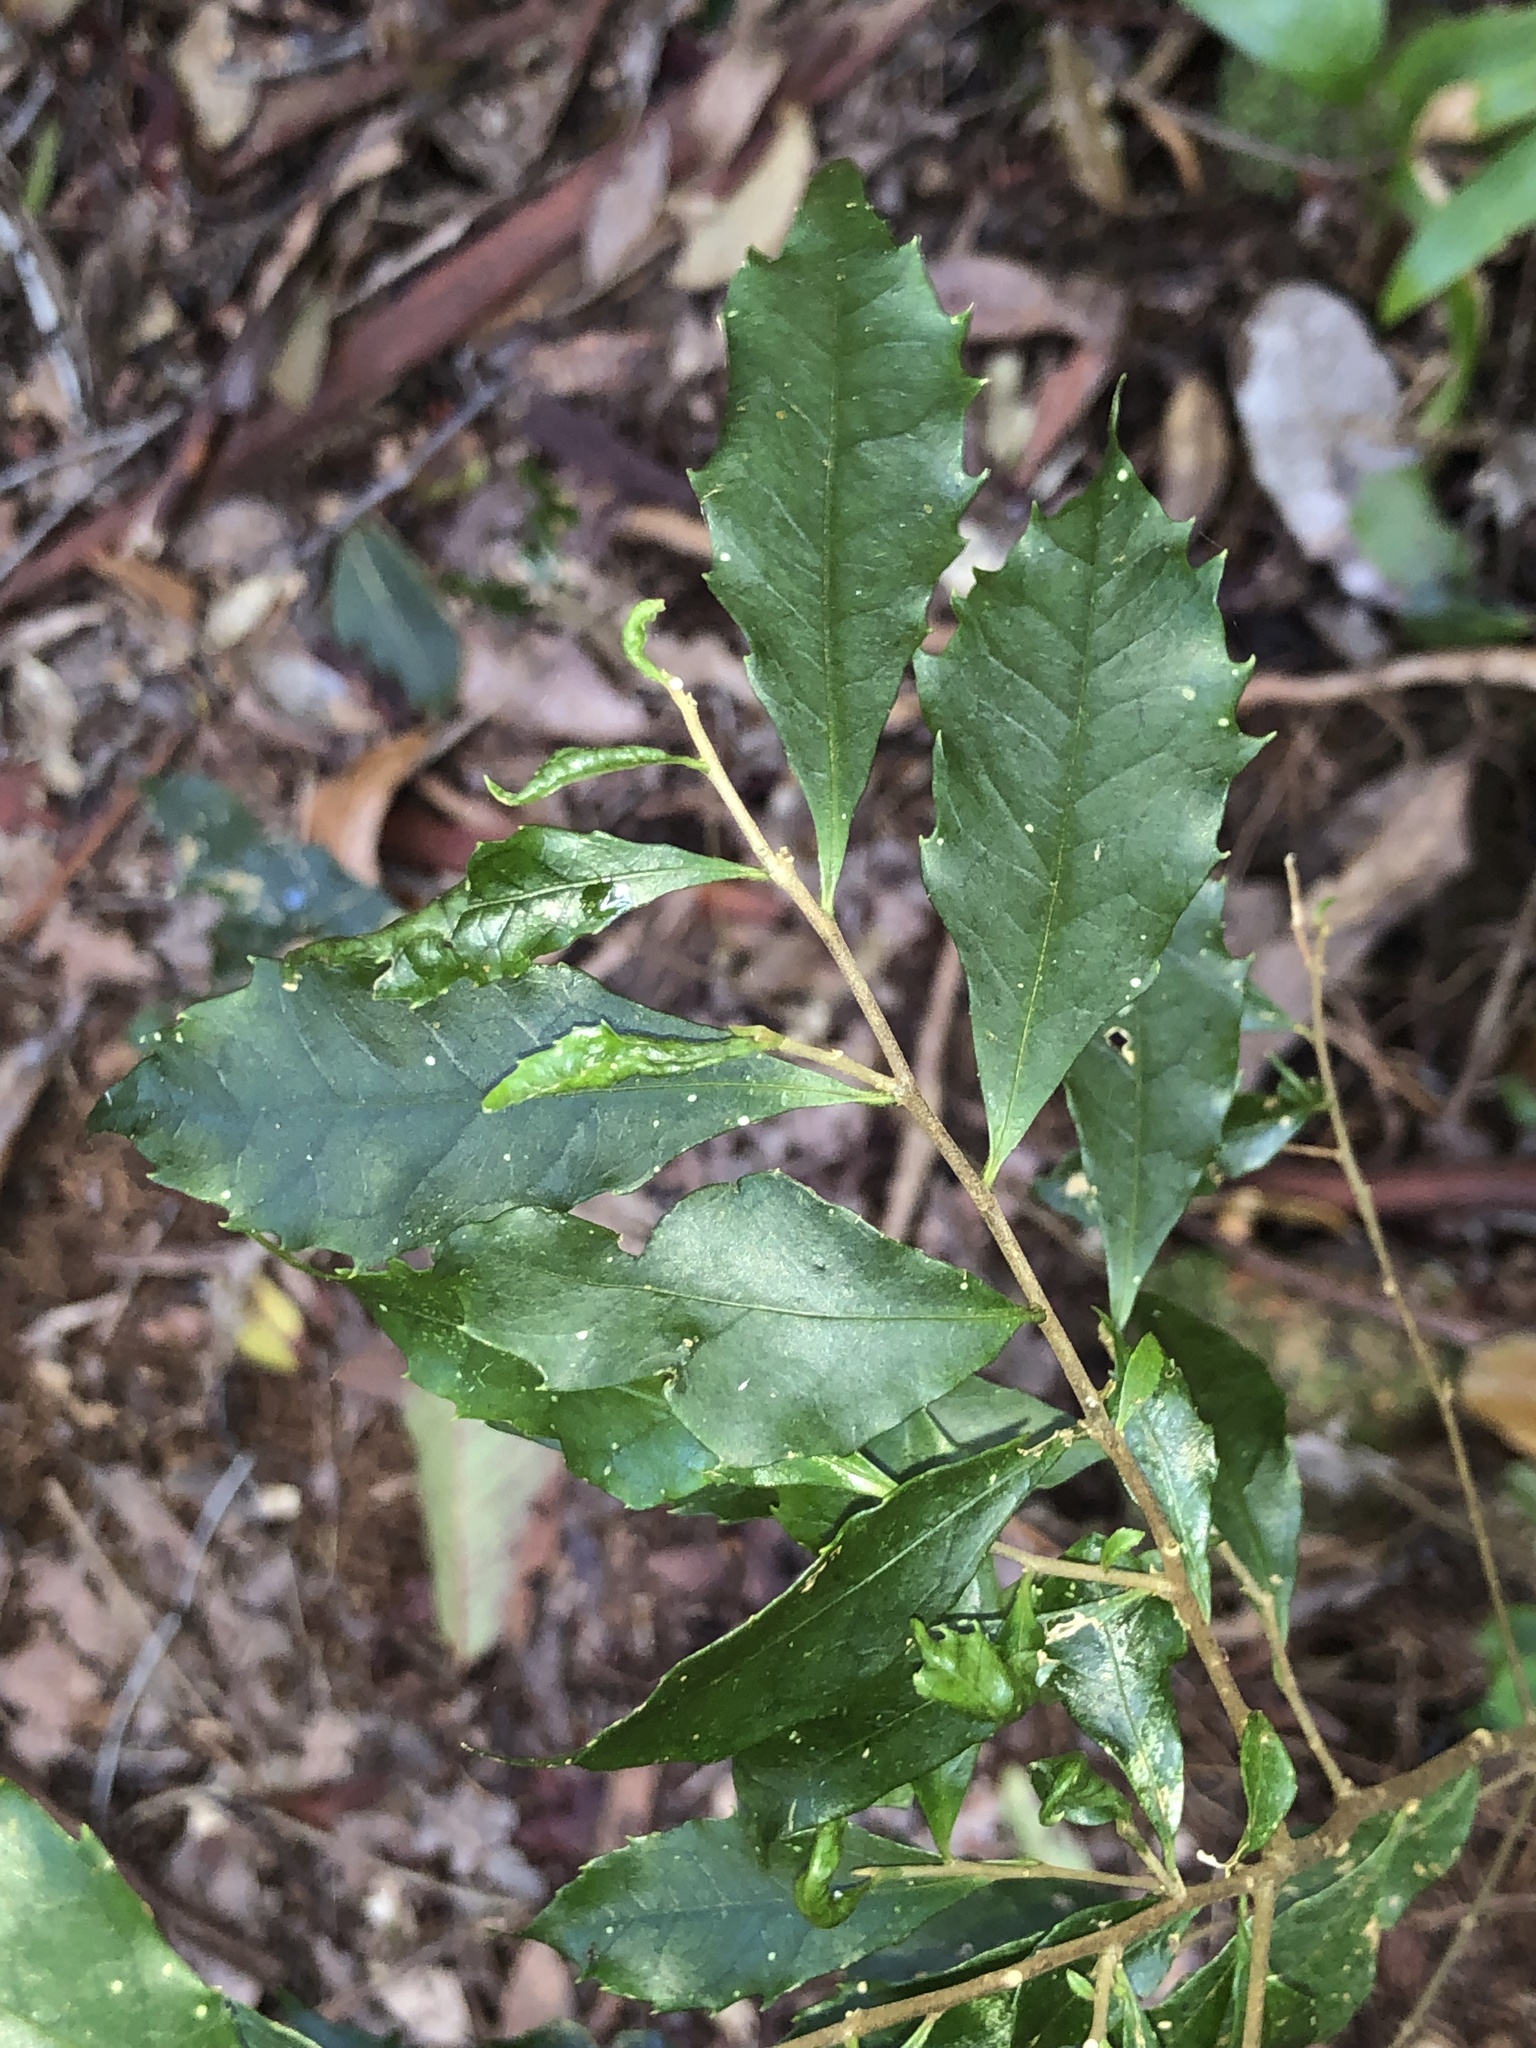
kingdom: Plantae
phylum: Tracheophyta
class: Magnoliopsida
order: Ericales
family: Symplocaceae
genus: Symplocos
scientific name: Symplocos baeuerlenii
